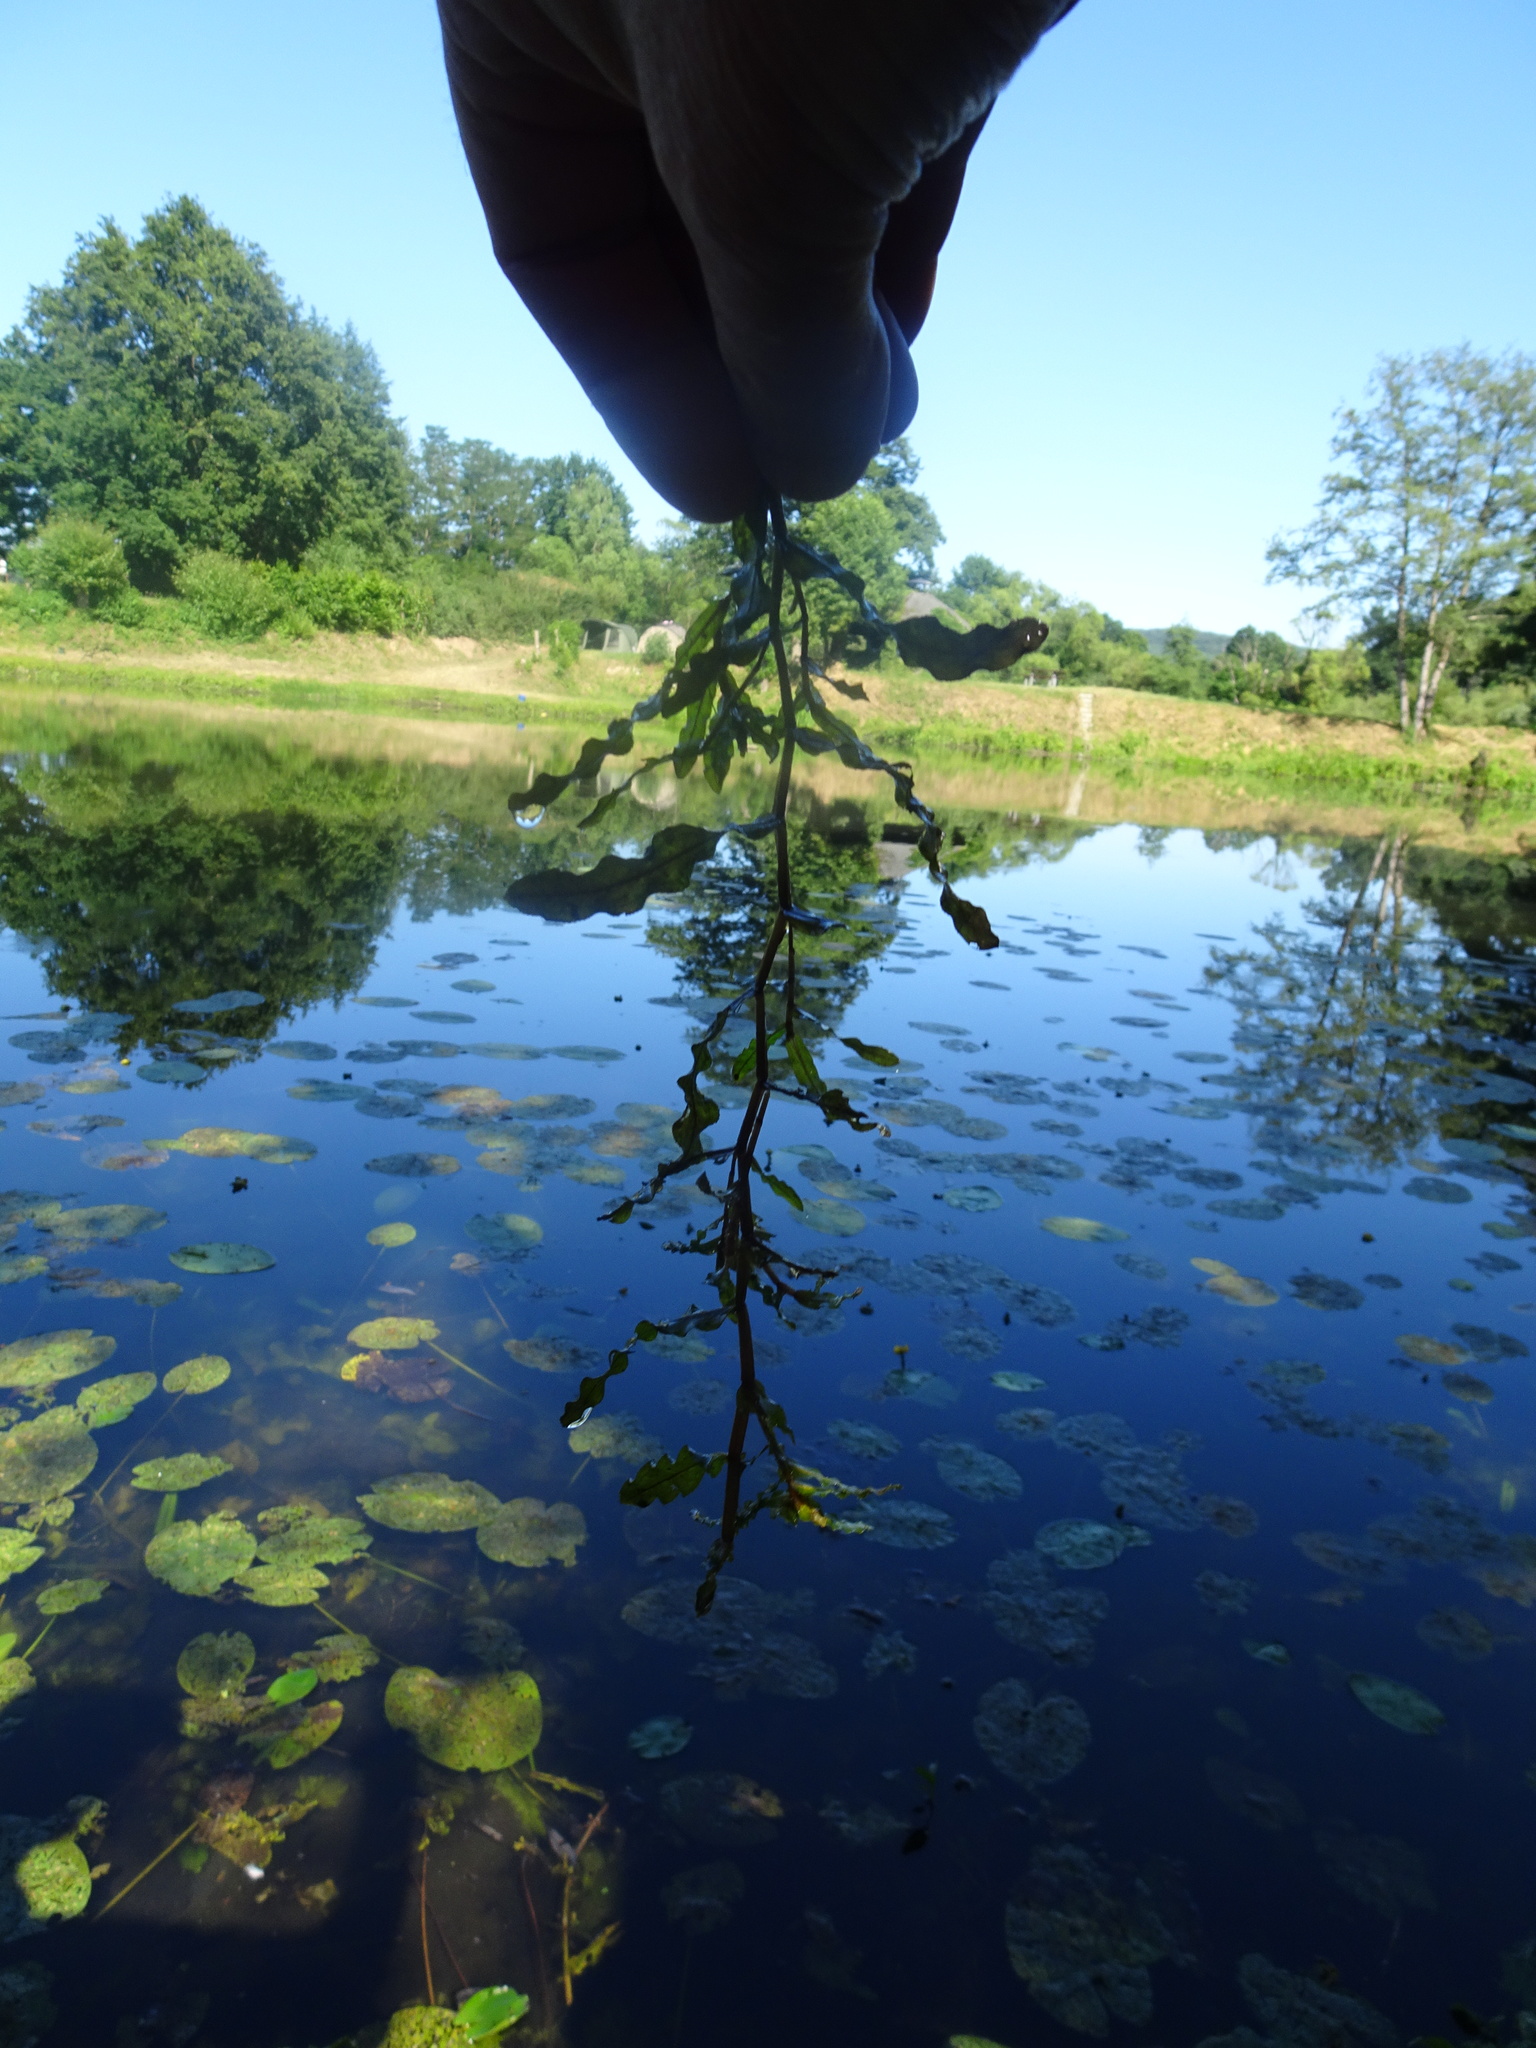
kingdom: Plantae
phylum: Tracheophyta
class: Liliopsida
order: Alismatales
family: Potamogetonaceae
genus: Potamogeton
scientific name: Potamogeton crispus
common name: Curled pondweed
